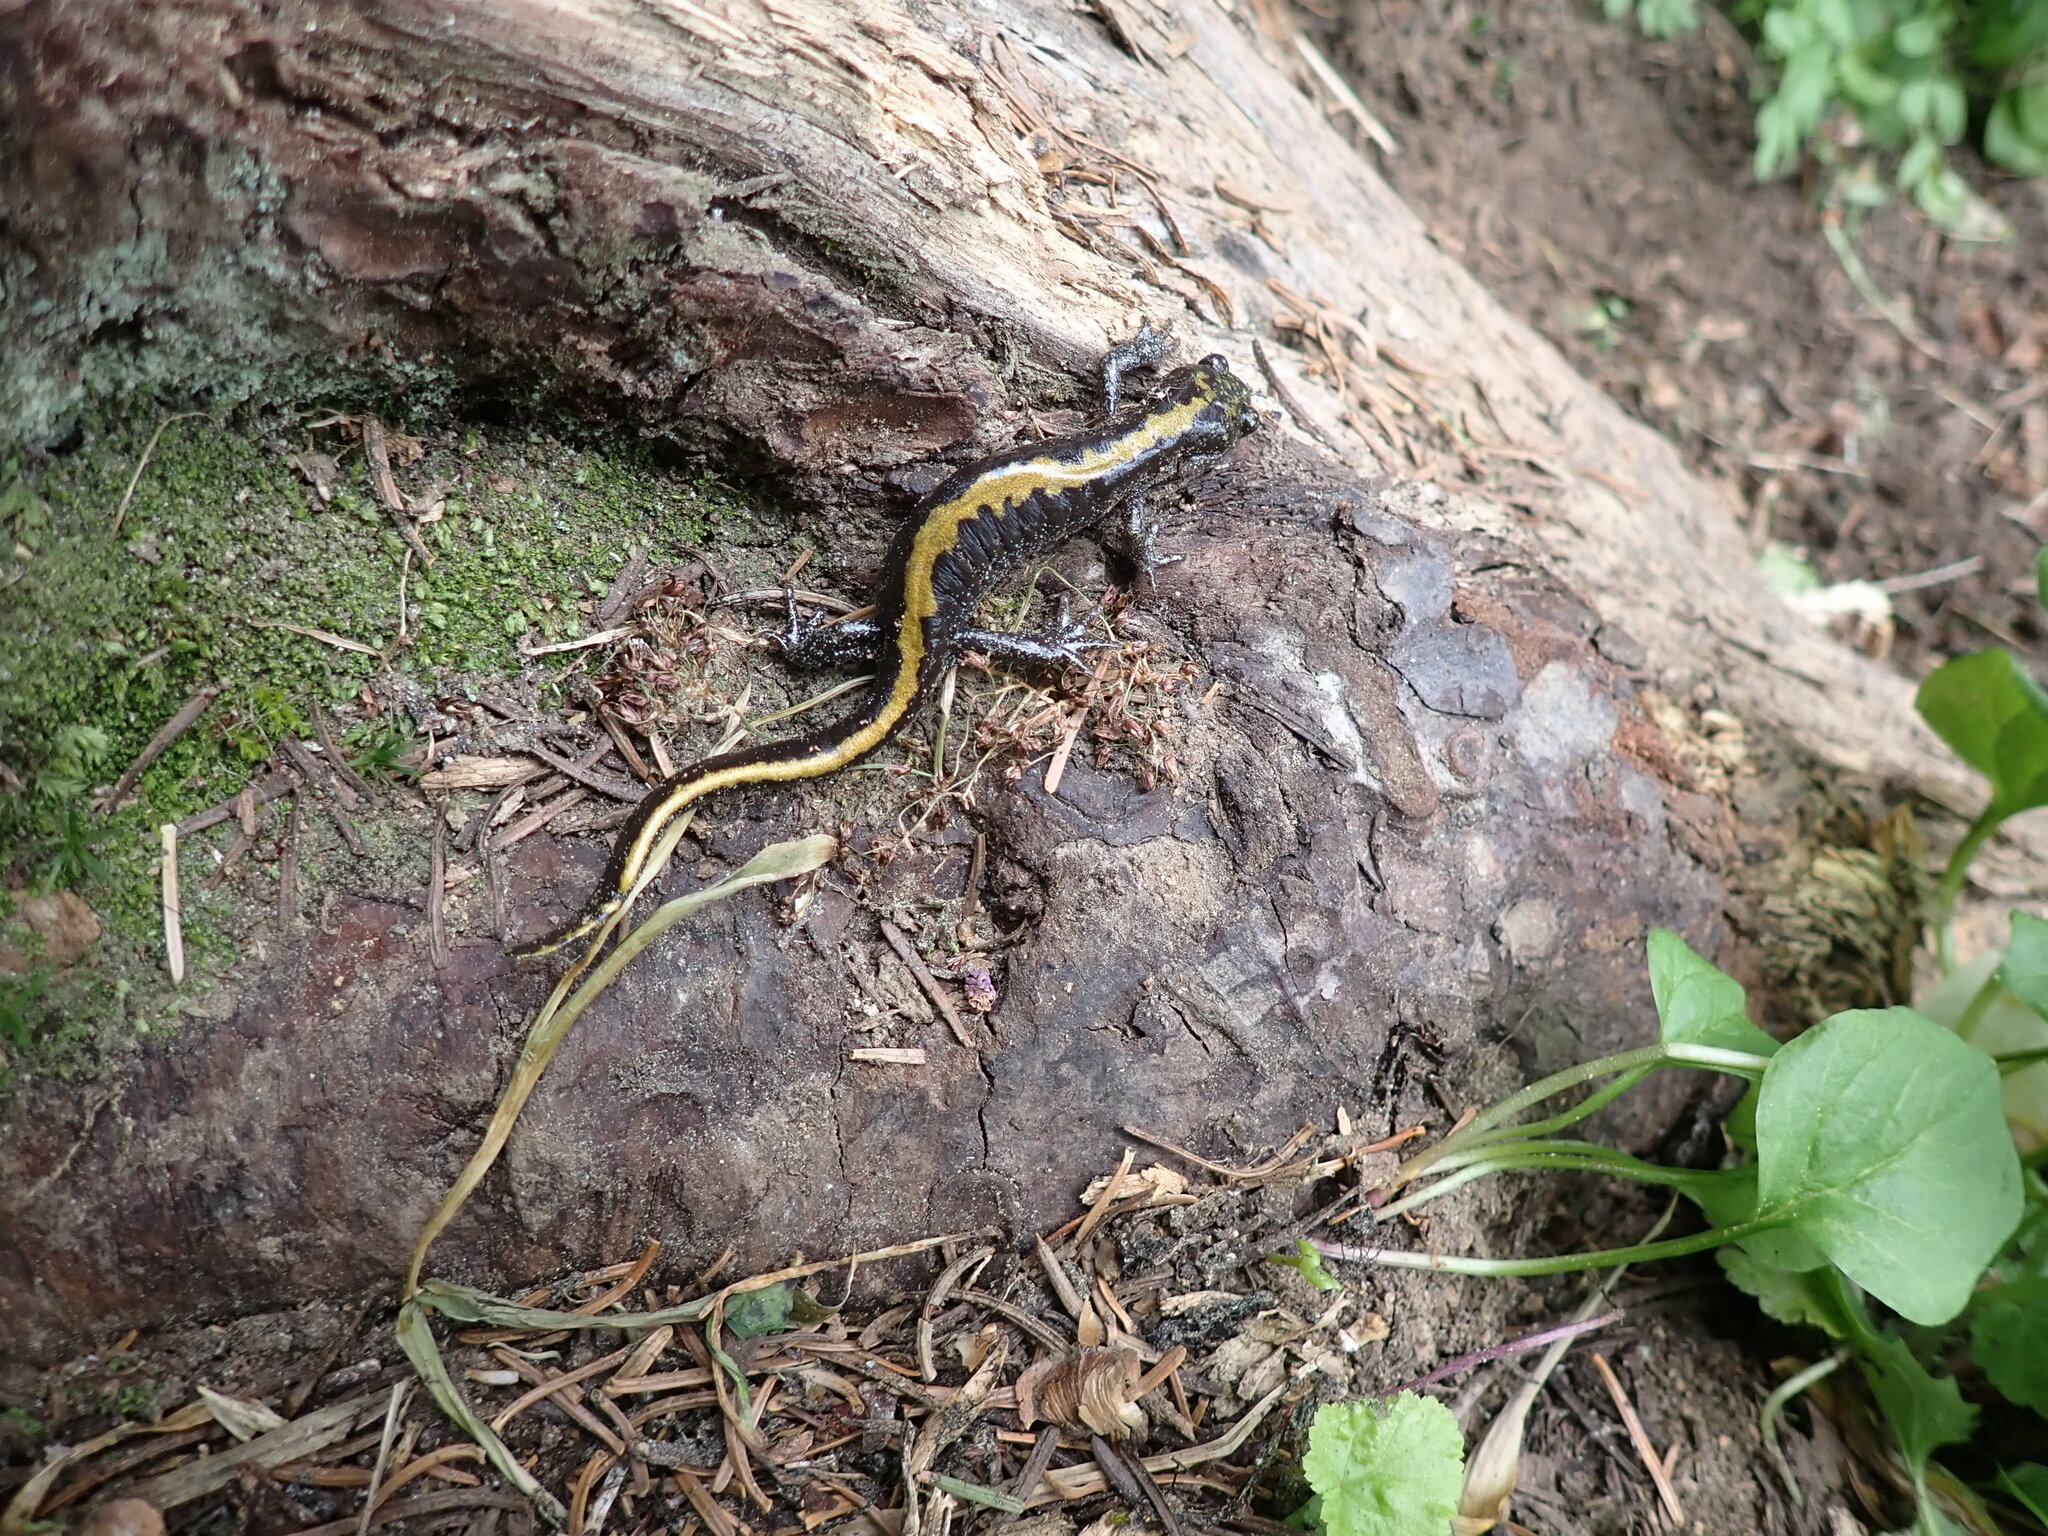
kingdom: Animalia
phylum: Chordata
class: Amphibia
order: Caudata
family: Ambystomatidae
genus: Ambystoma
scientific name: Ambystoma macrodactylum
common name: Long-toed salamander
